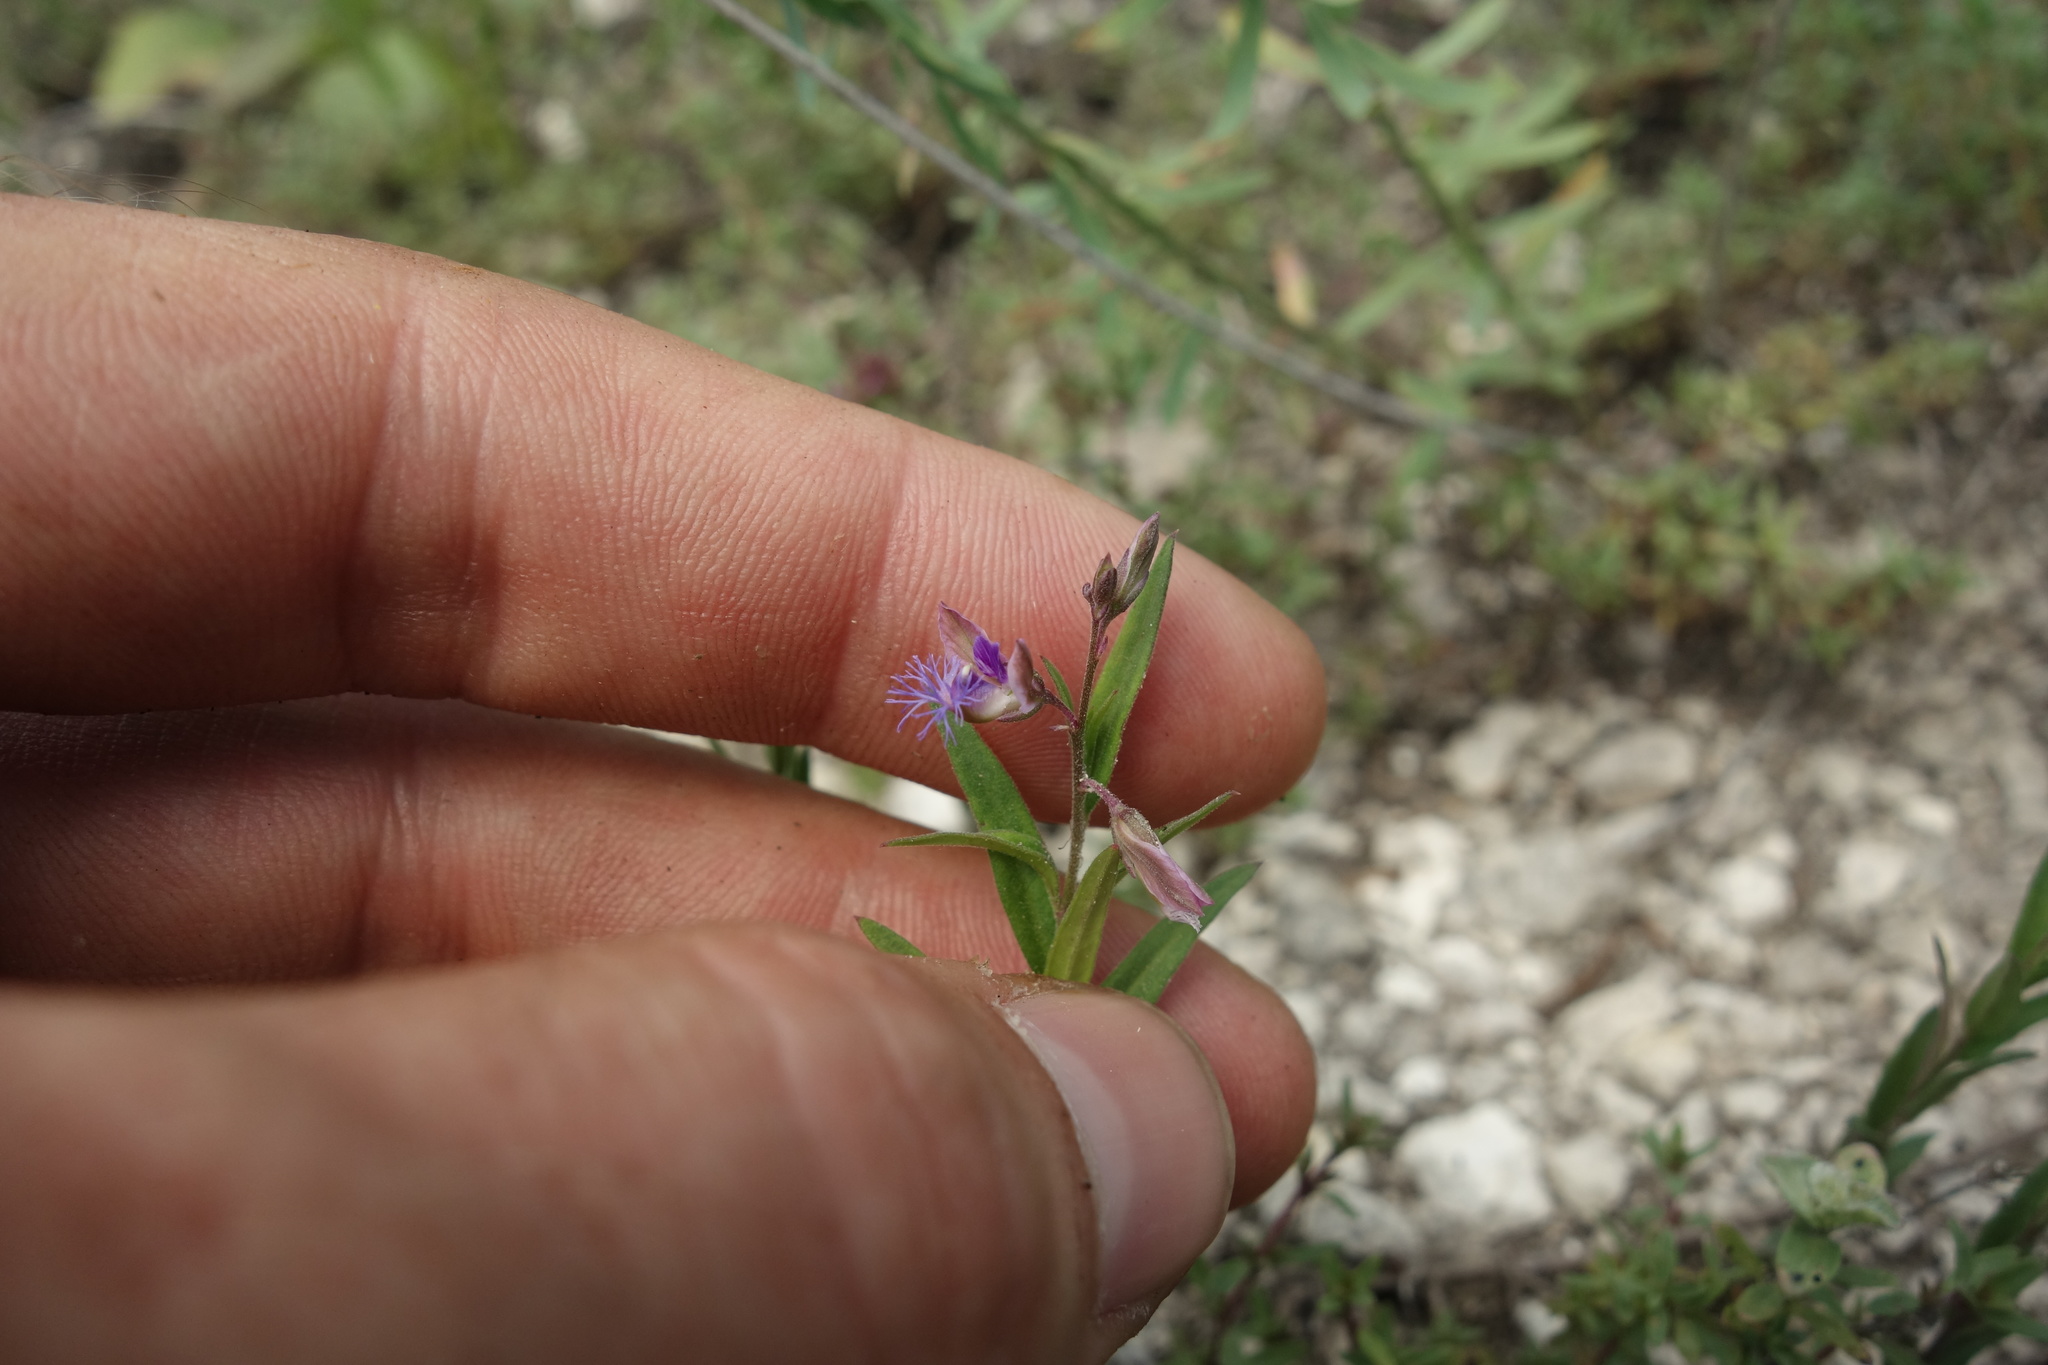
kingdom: Plantae
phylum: Tracheophyta
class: Magnoliopsida
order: Fabales
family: Polygalaceae
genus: Polygala
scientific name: Polygala sibirica
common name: Siberian polygala
